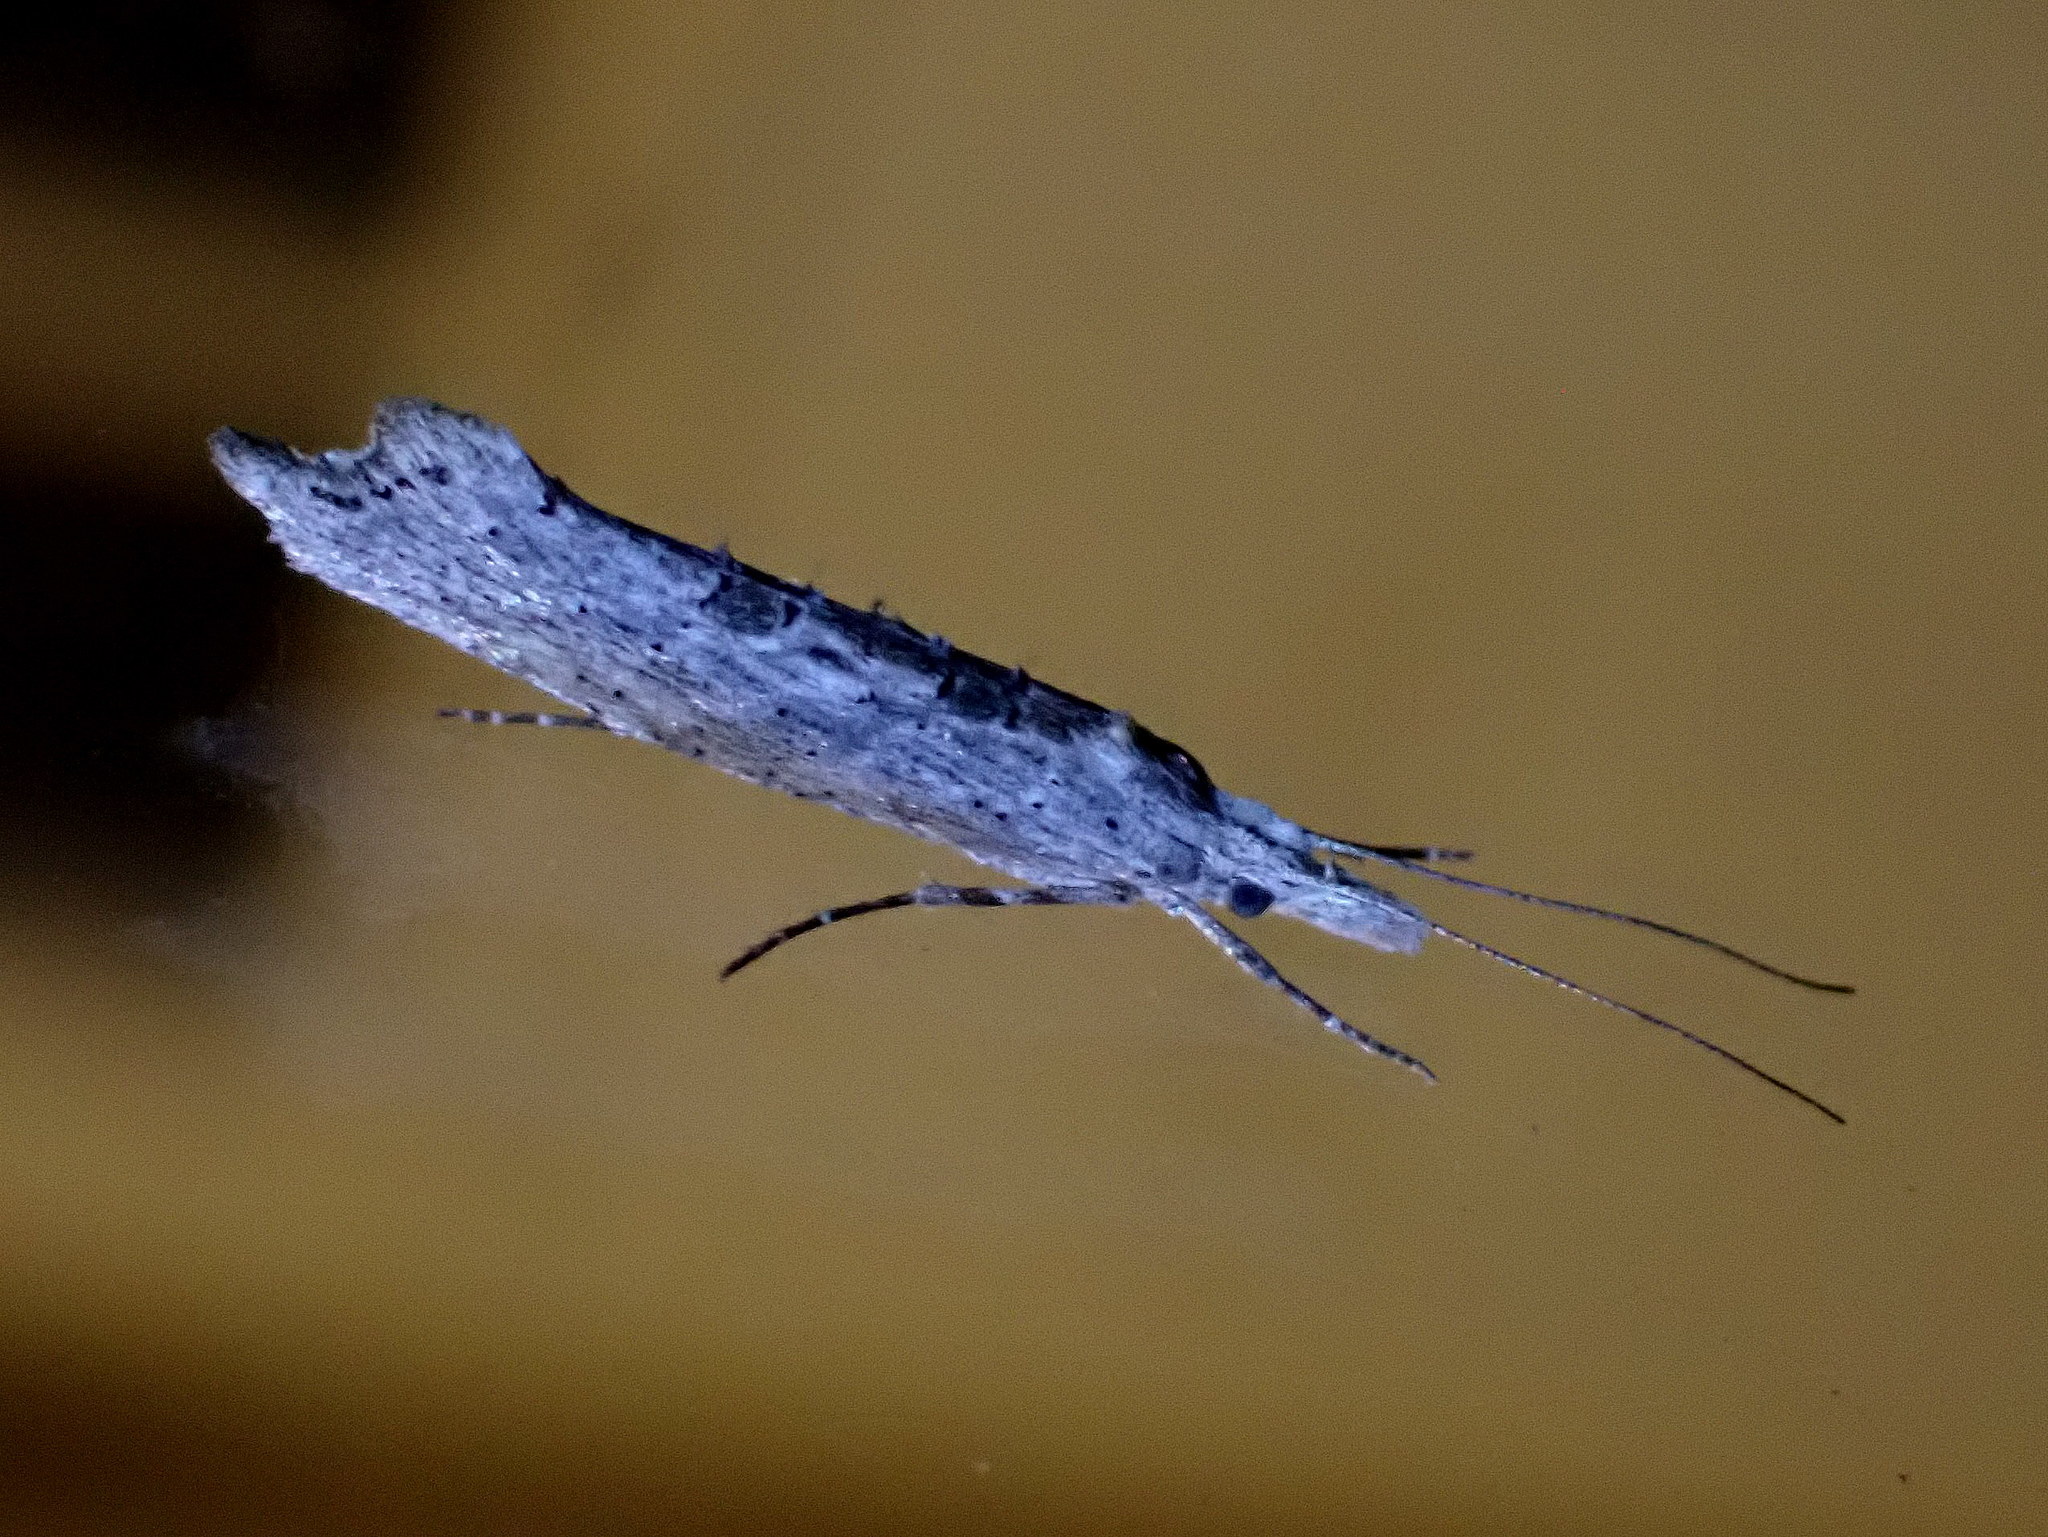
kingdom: Animalia
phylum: Arthropoda
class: Insecta
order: Lepidoptera
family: Ypsolophidae
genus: Ypsolopha
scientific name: Ypsolopha falciferella
